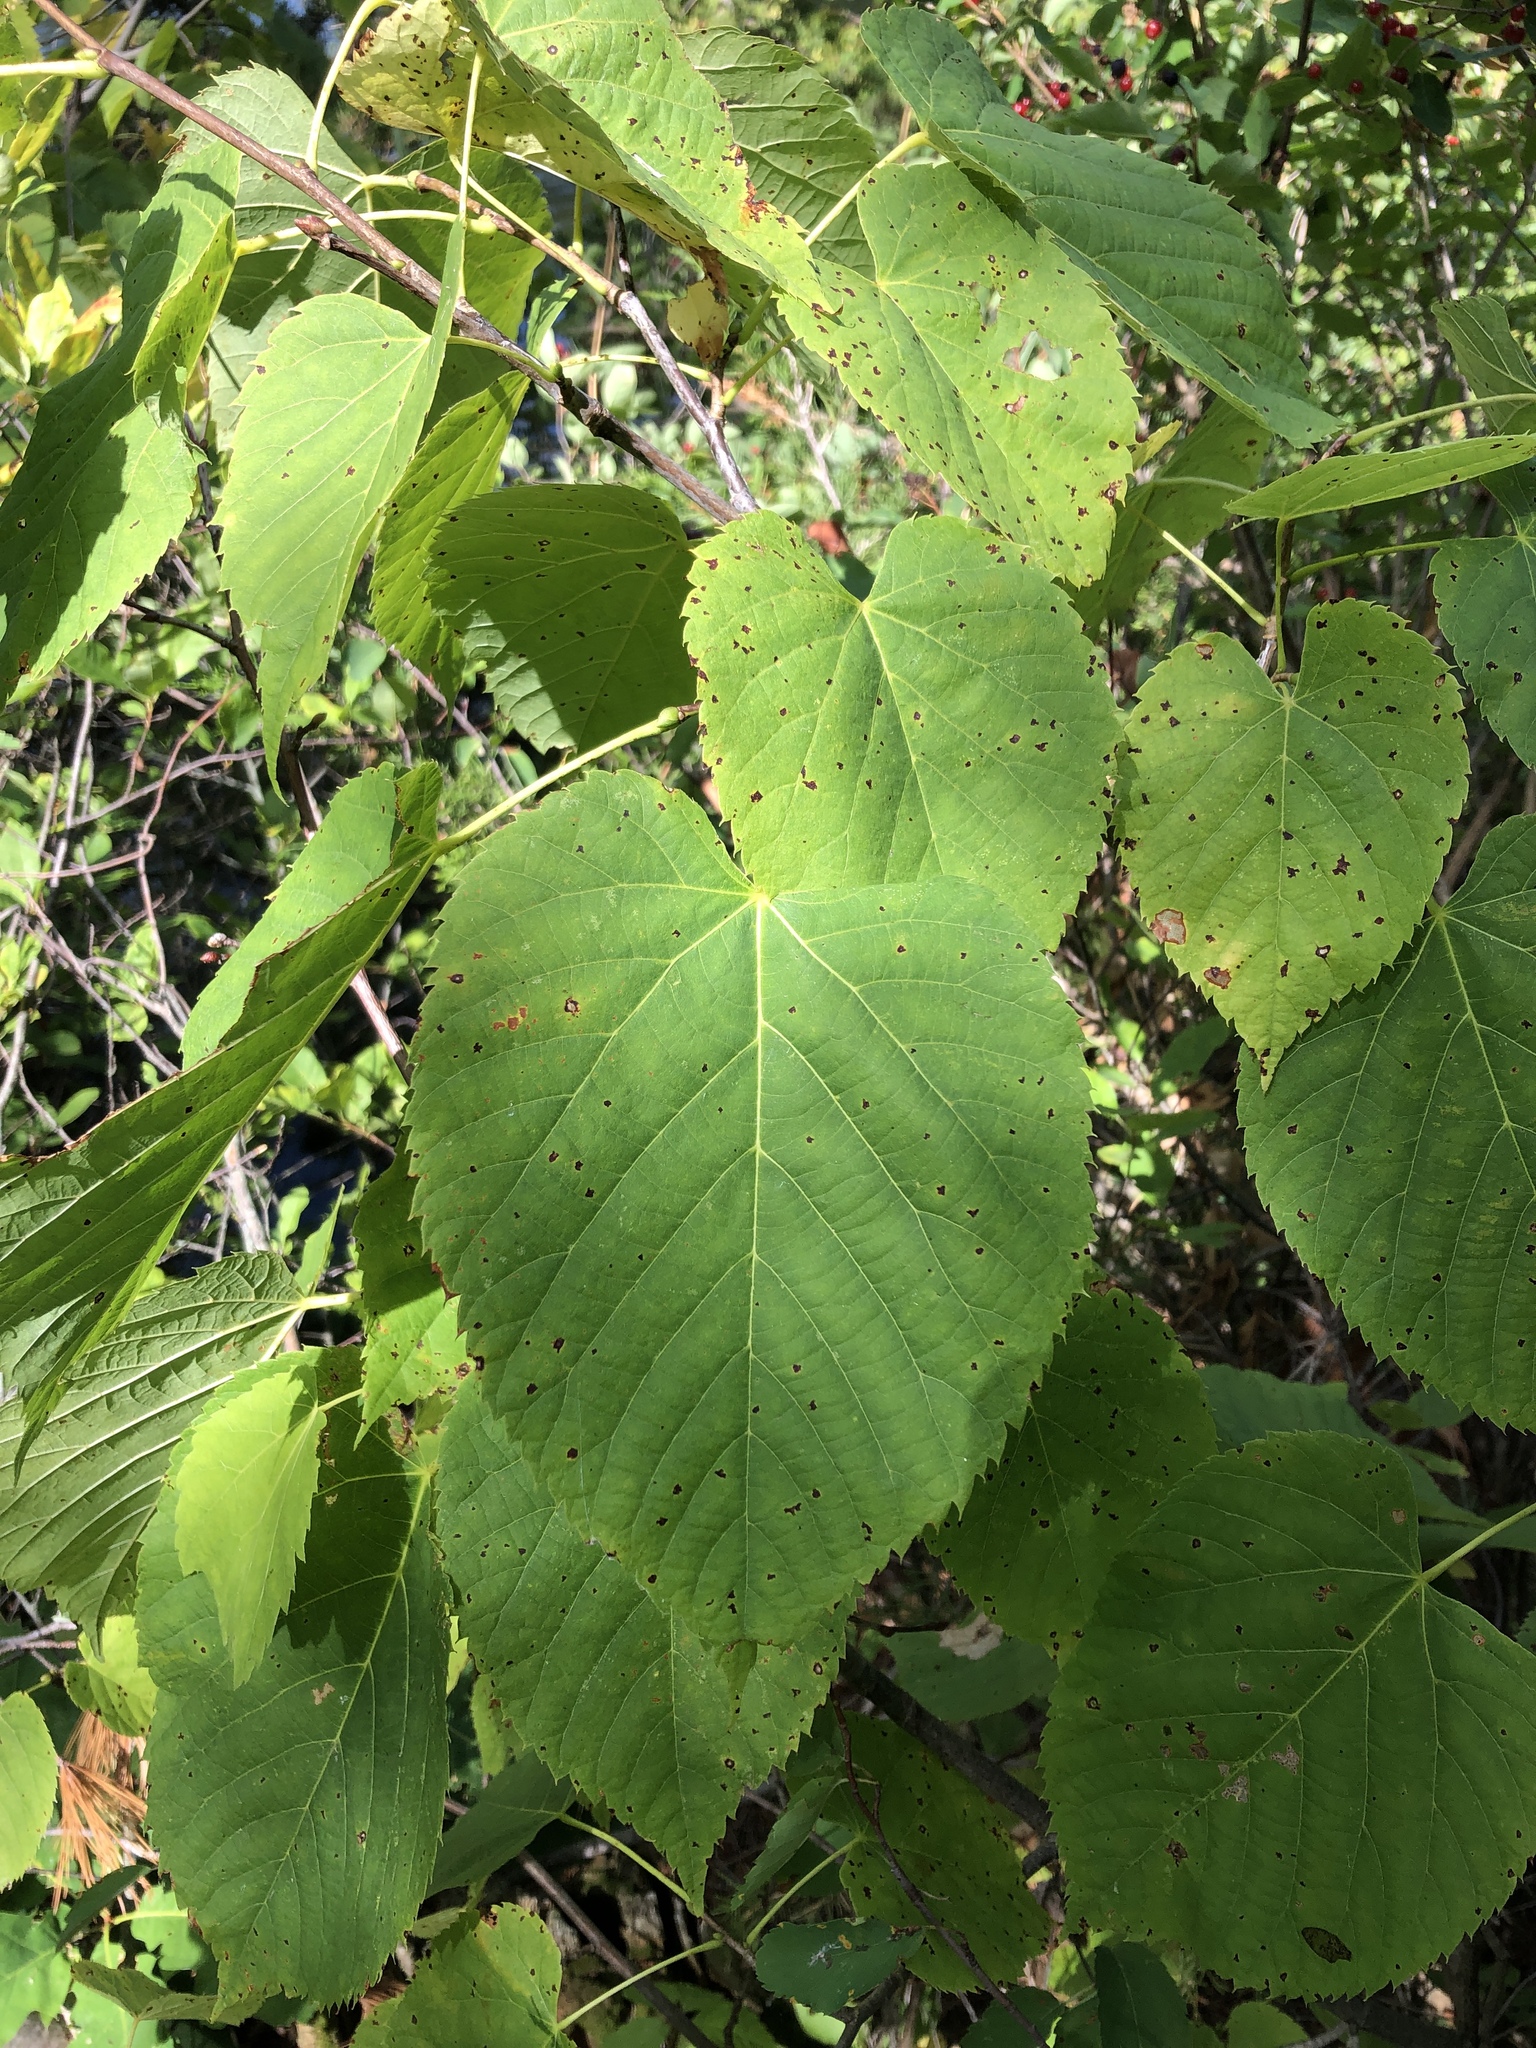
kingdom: Plantae
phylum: Tracheophyta
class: Magnoliopsida
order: Malvales
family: Malvaceae
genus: Tilia
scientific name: Tilia americana
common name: Basswood
